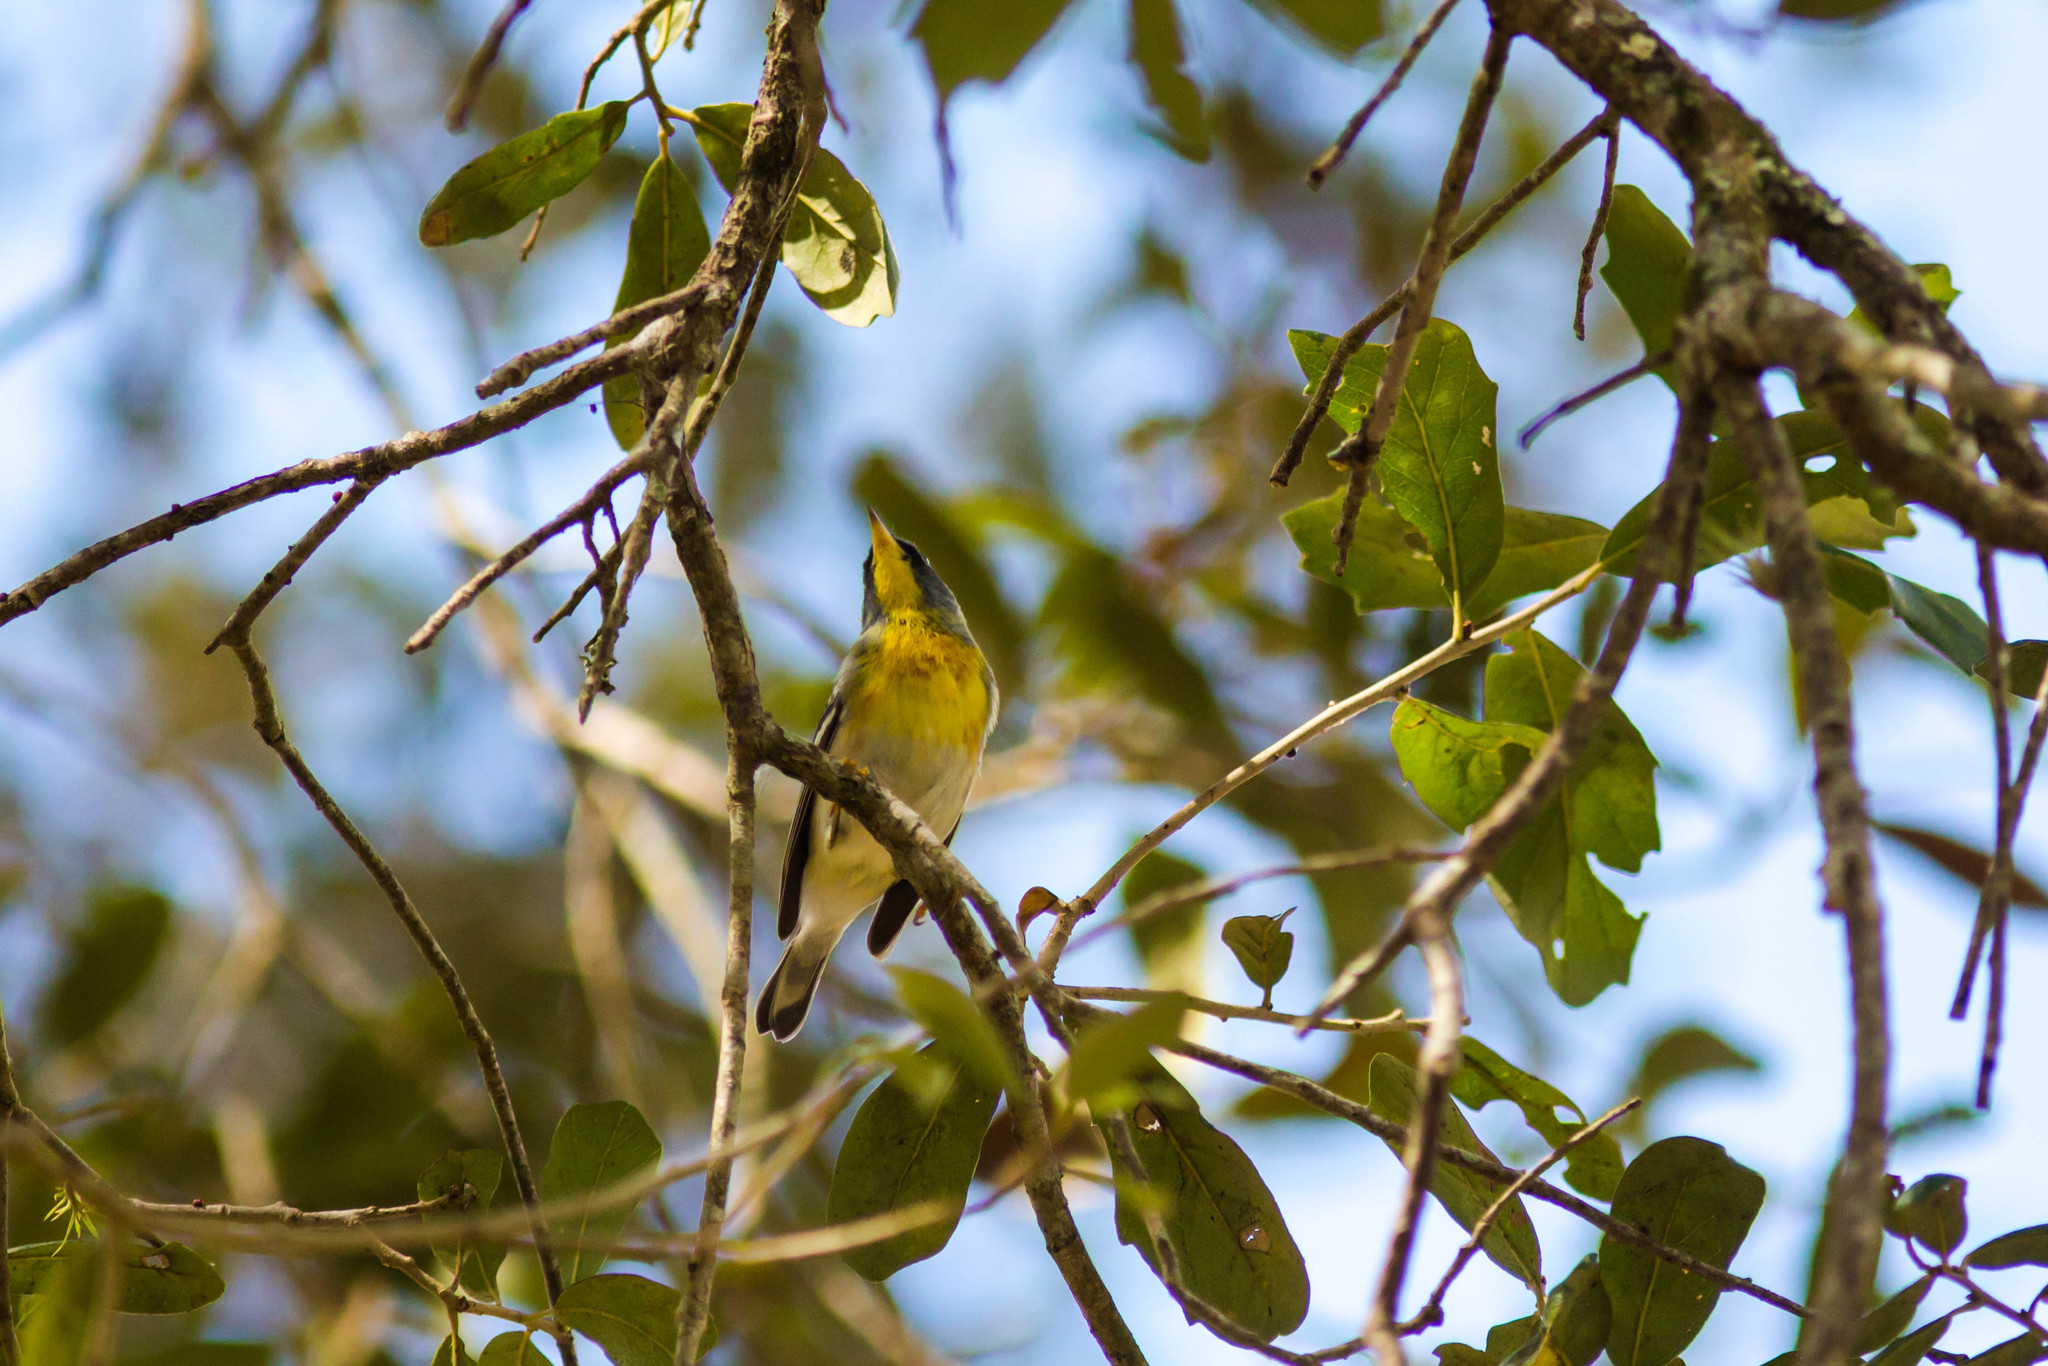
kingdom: Animalia
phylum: Chordata
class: Aves
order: Passeriformes
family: Parulidae
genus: Setophaga
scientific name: Setophaga americana
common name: Northern parula
